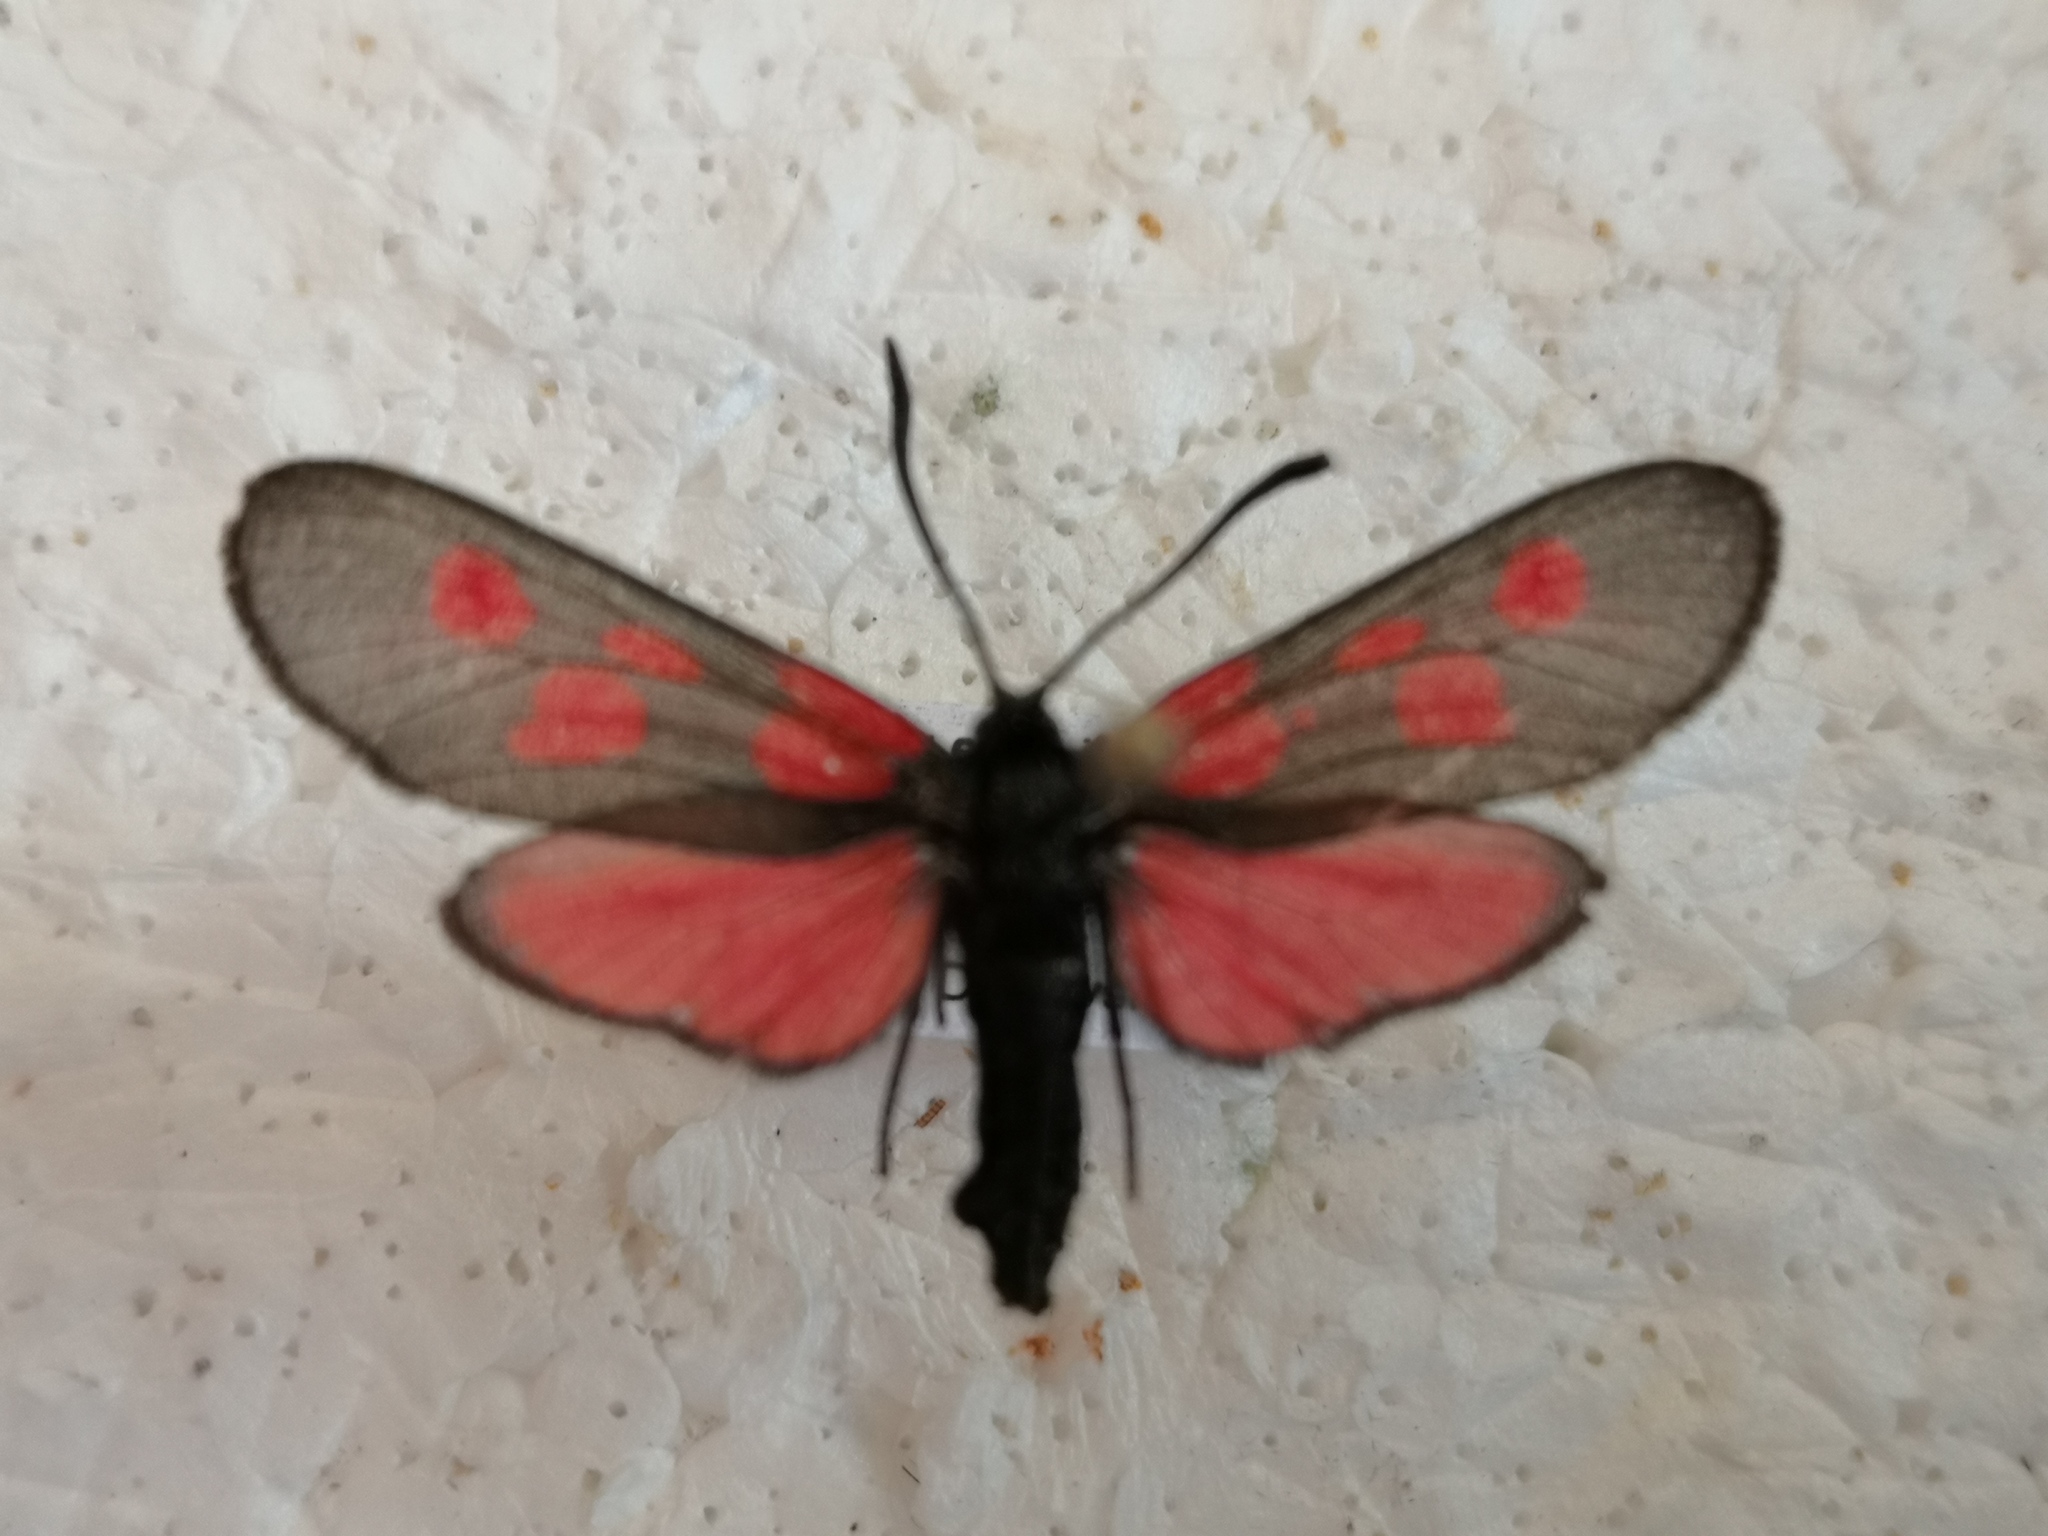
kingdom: Animalia
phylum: Arthropoda
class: Insecta
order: Lepidoptera
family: Zygaenidae
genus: Zygaena
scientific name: Zygaena viciae
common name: New forest burnet
